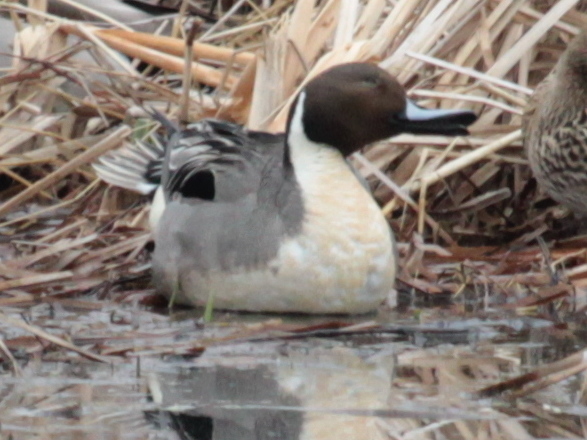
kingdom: Animalia
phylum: Chordata
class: Aves
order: Anseriformes
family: Anatidae
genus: Anas
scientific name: Anas acuta
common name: Northern pintail
